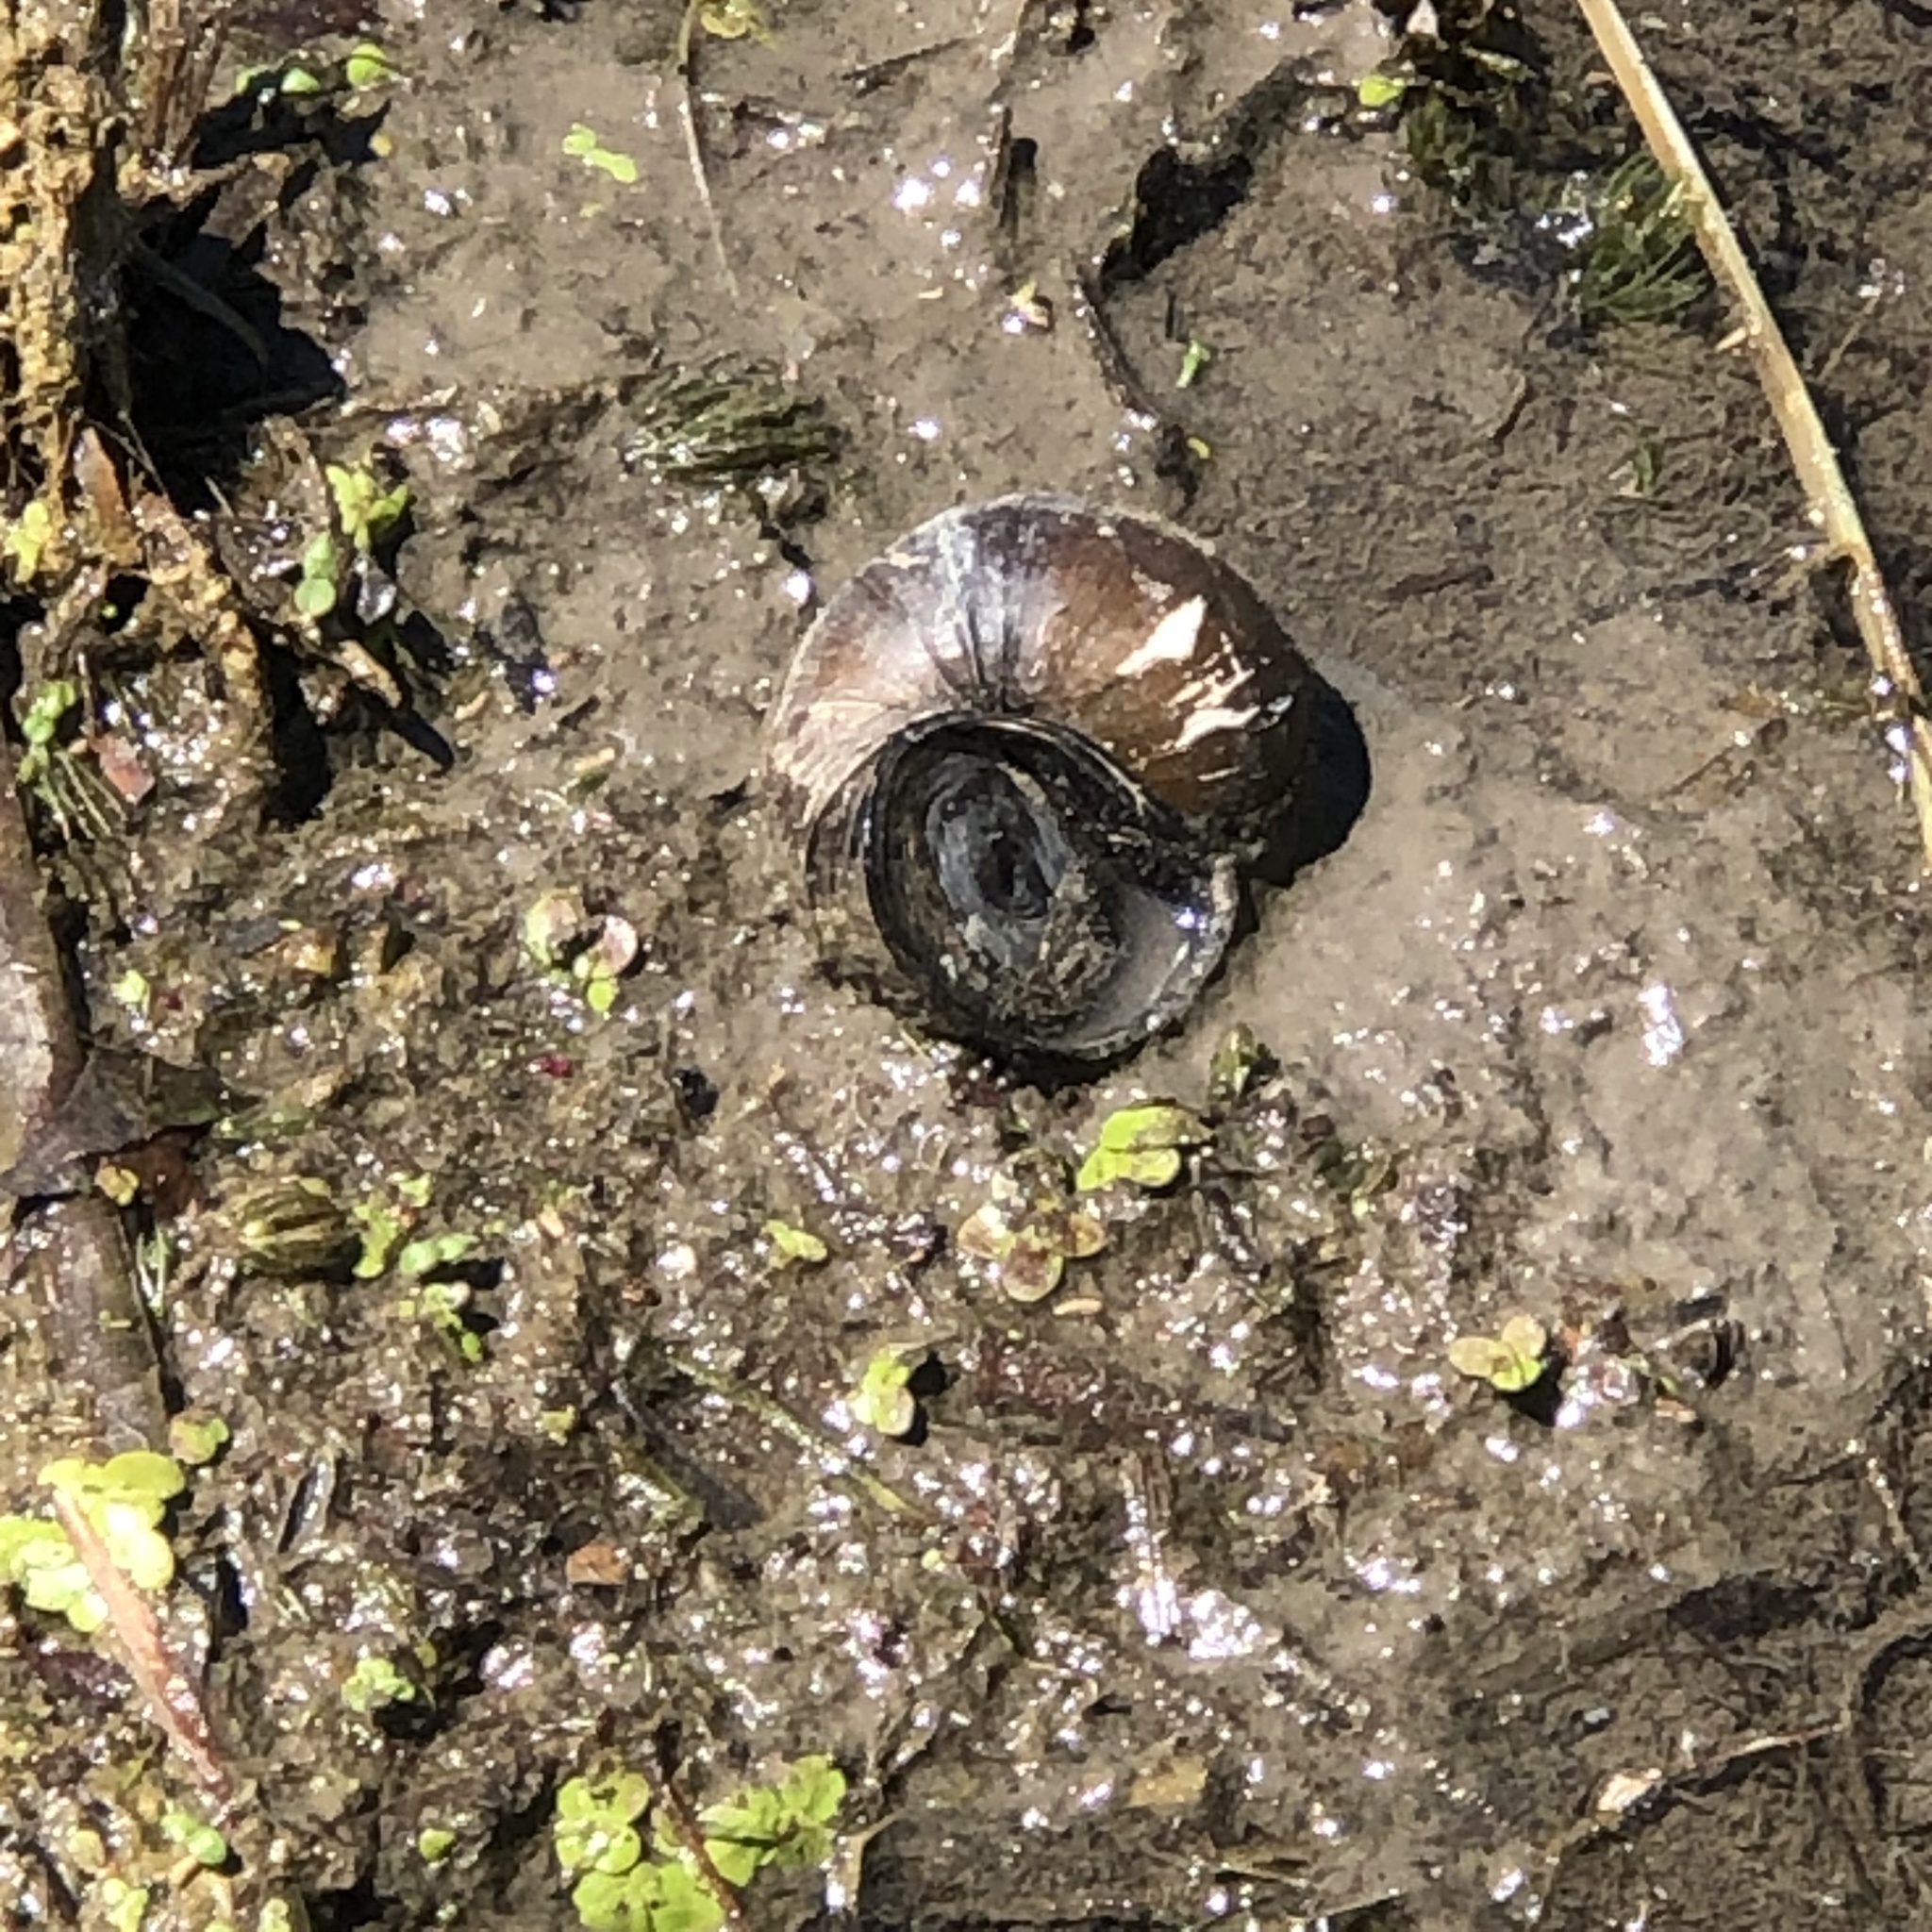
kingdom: Animalia
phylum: Mollusca
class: Gastropoda
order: Architaenioglossa
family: Viviparidae
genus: Cipangopaludina
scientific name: Cipangopaludina chinensis
